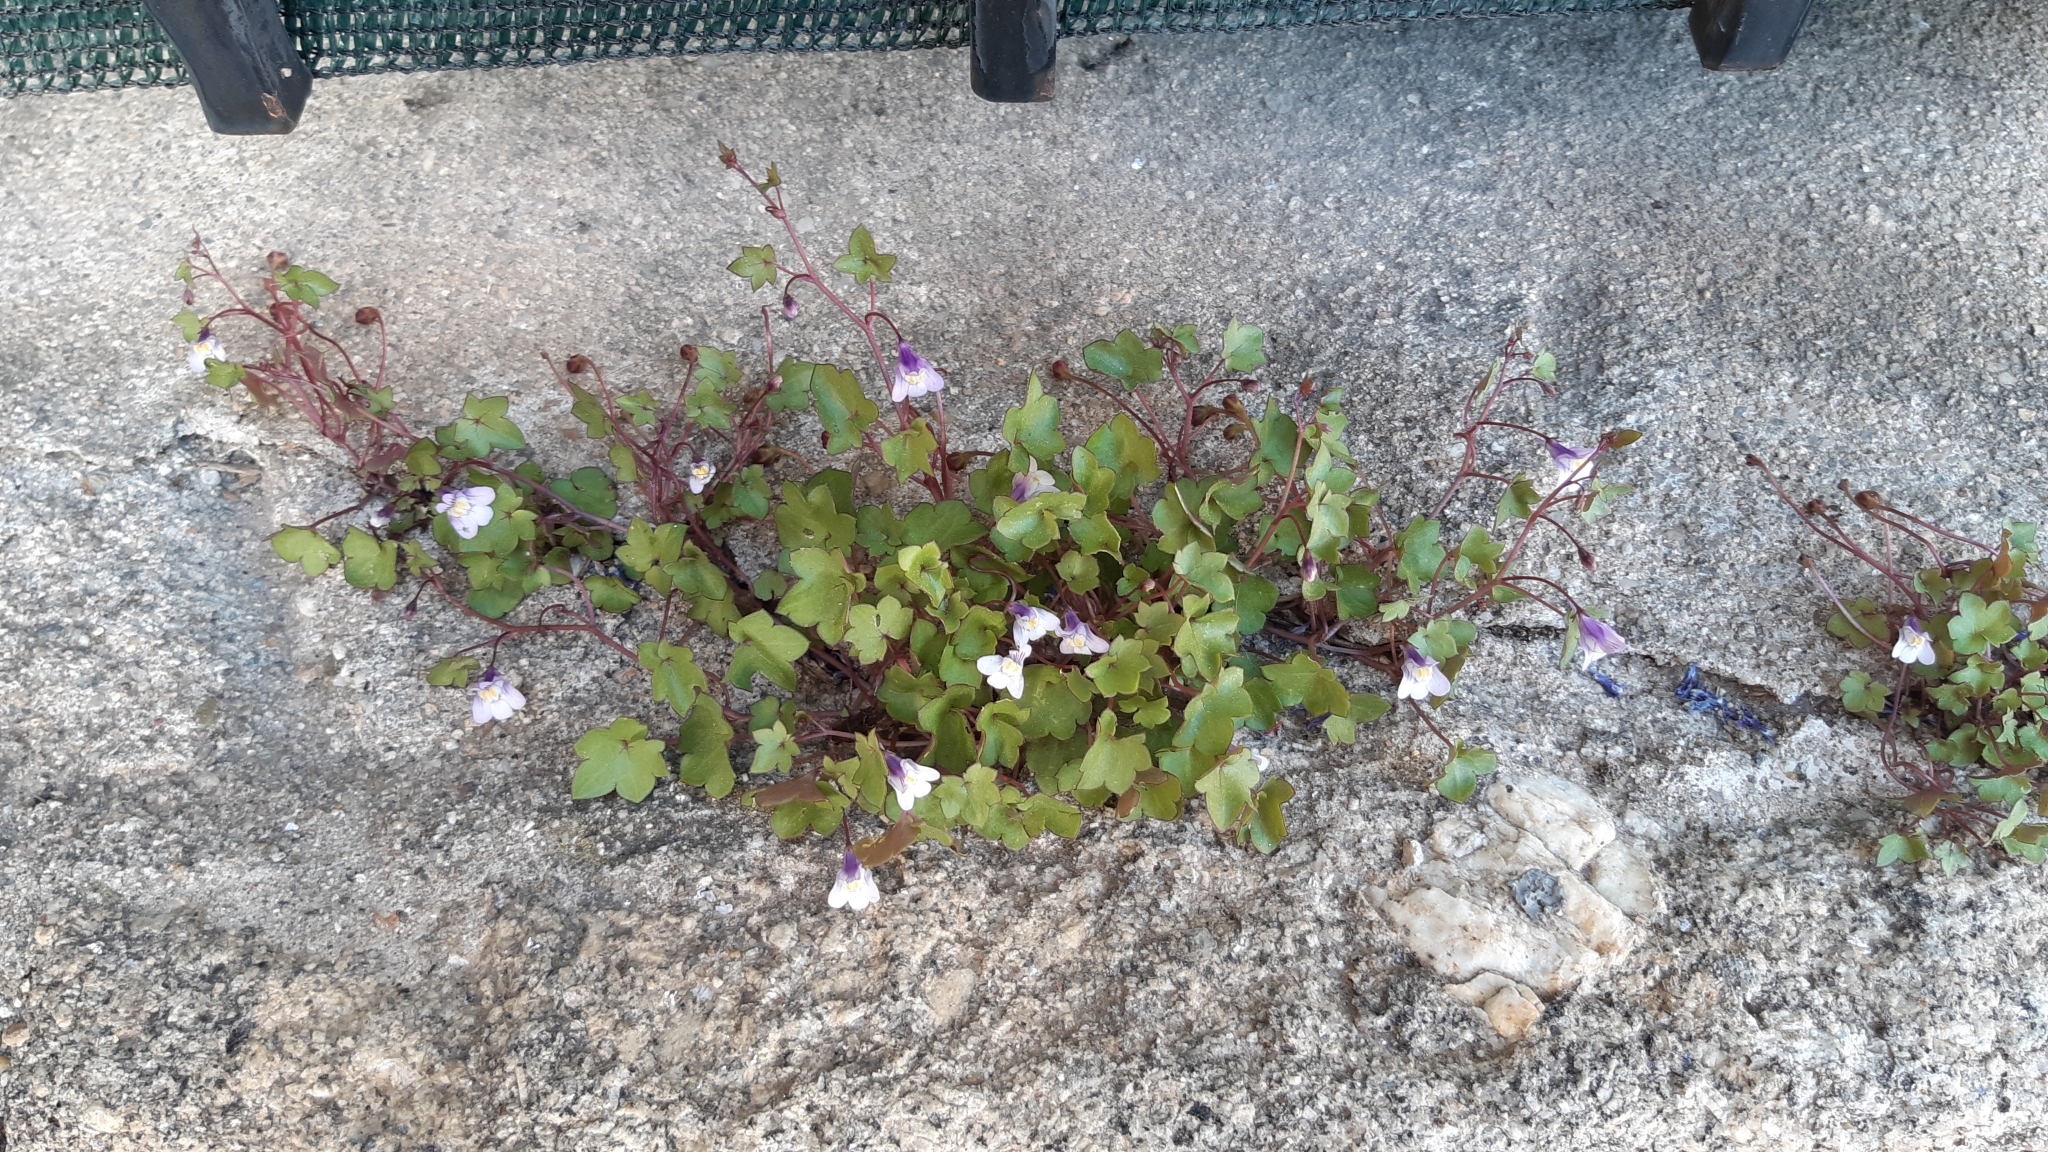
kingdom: Plantae
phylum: Tracheophyta
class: Magnoliopsida
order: Lamiales
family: Plantaginaceae
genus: Cymbalaria
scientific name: Cymbalaria muralis
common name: Ivy-leaved toadflax
